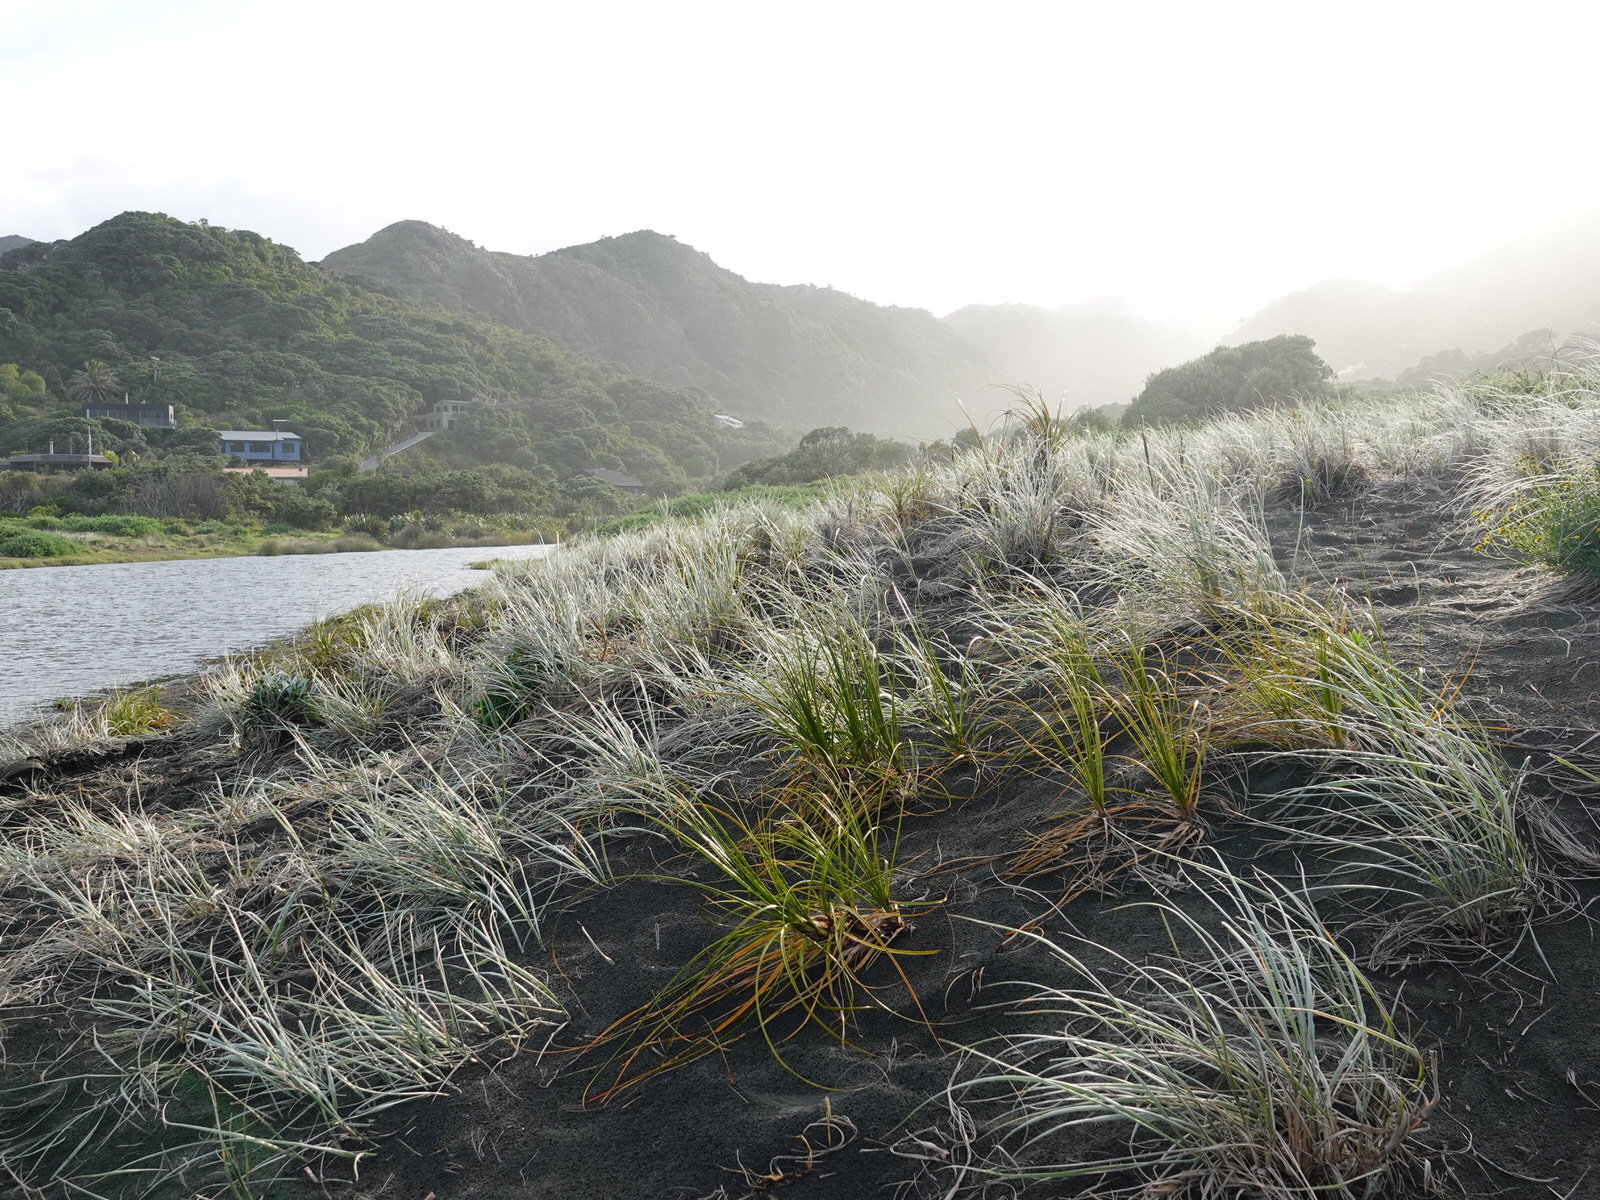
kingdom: Plantae
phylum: Tracheophyta
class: Liliopsida
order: Poales
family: Cyperaceae
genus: Ficinia
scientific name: Ficinia spiralis
